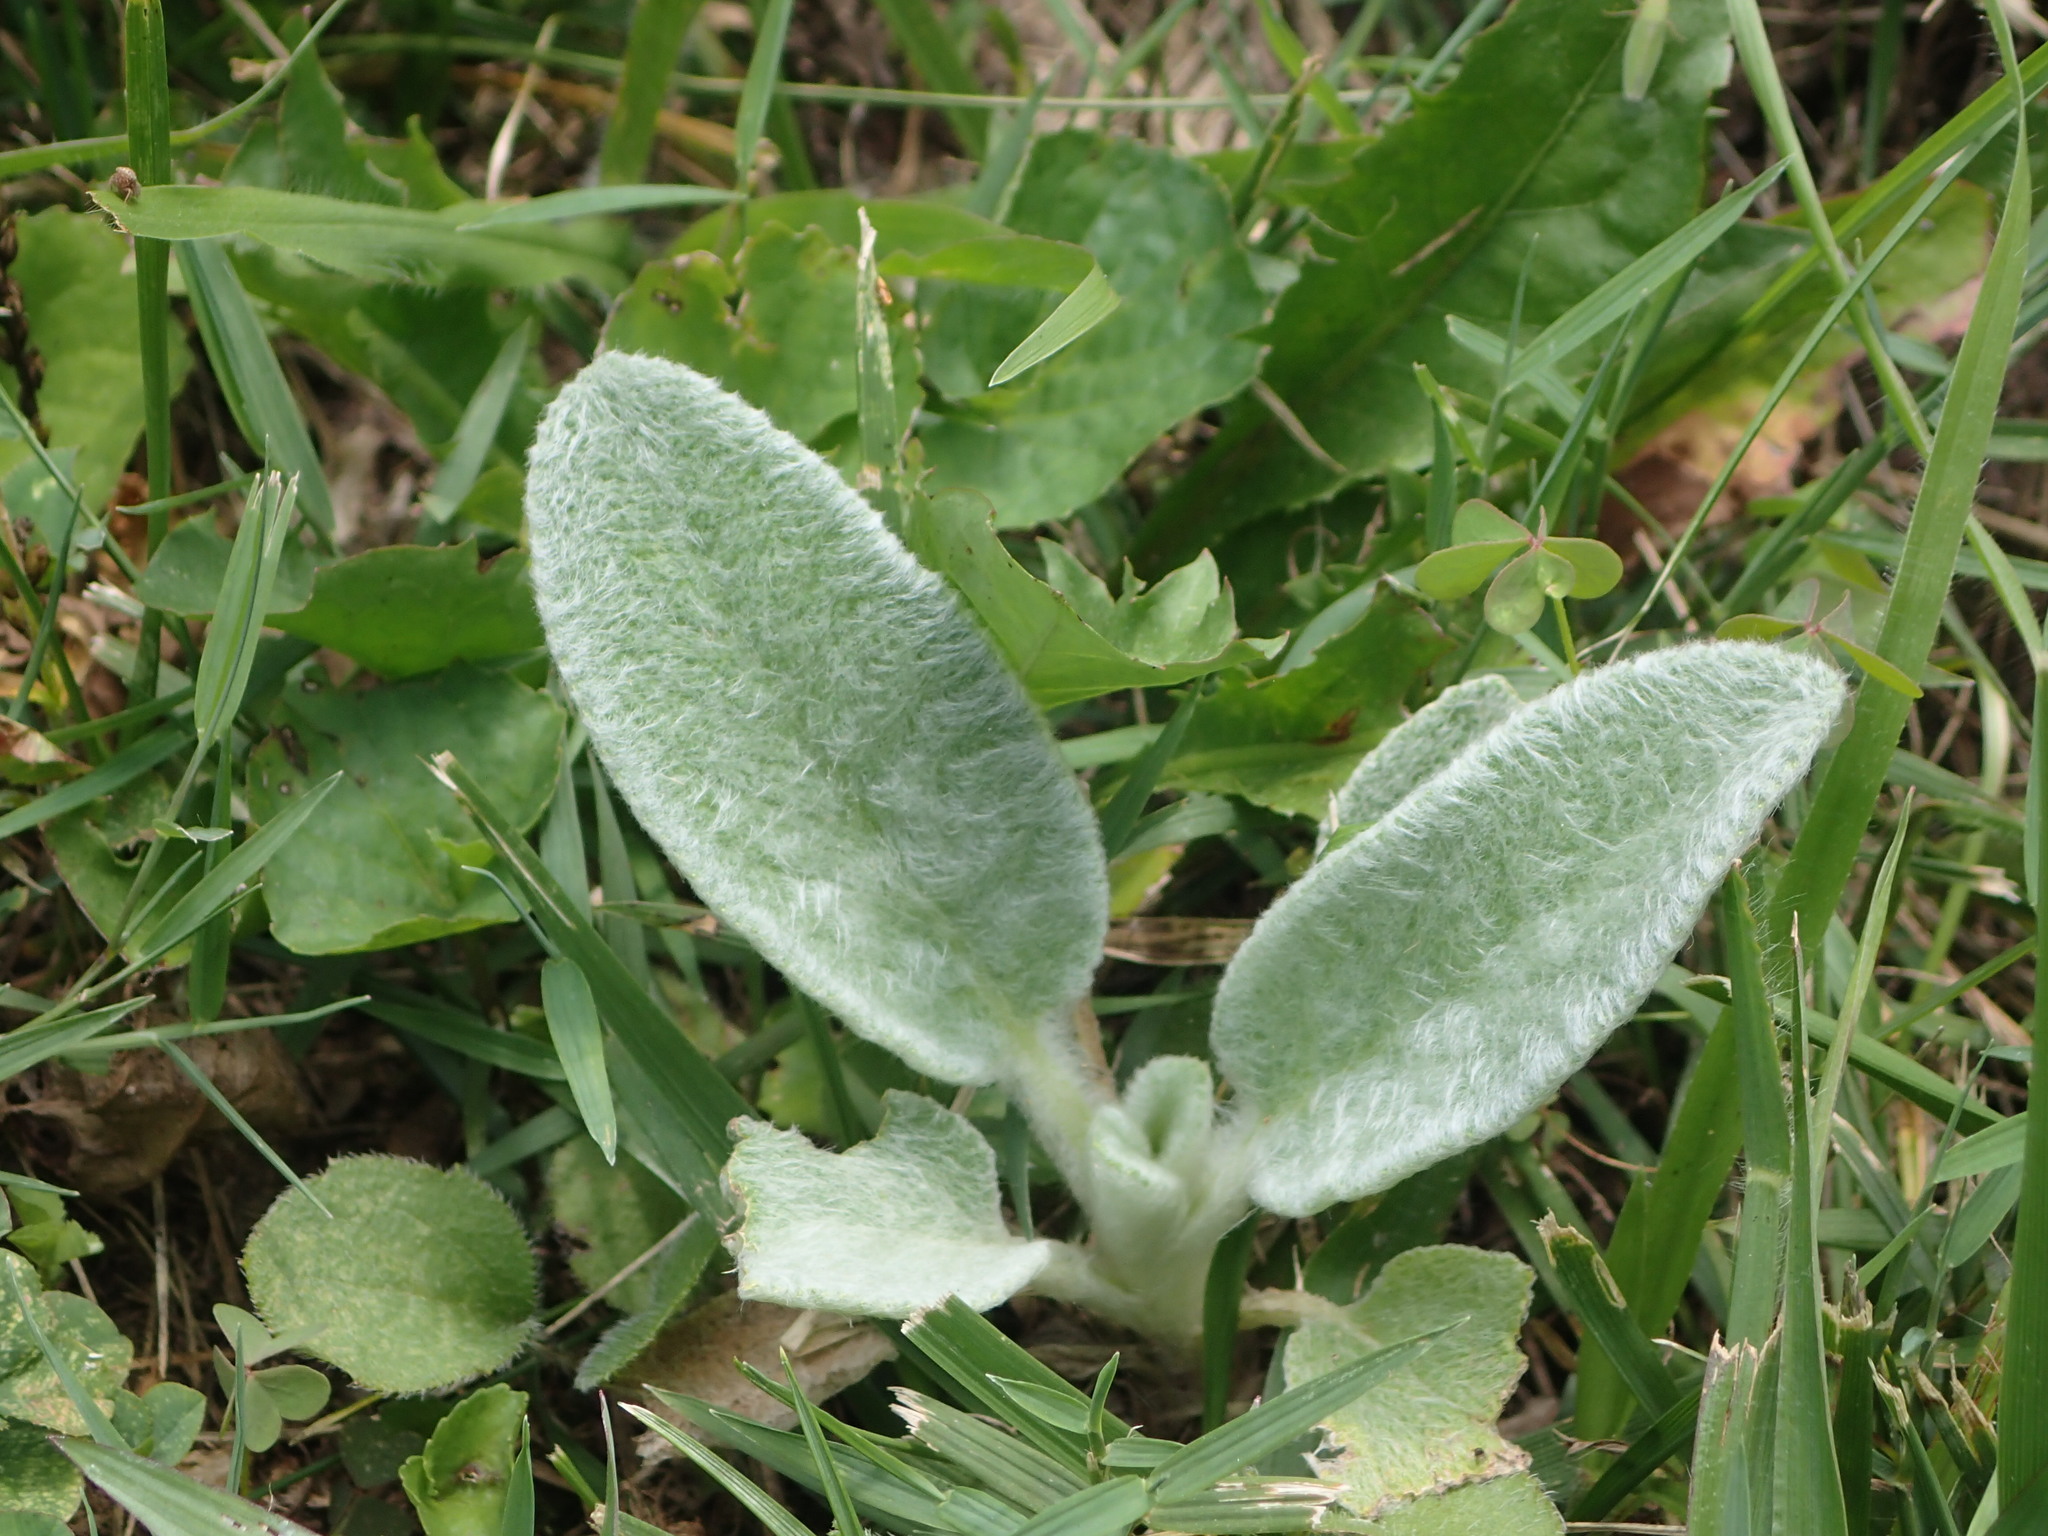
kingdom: Plantae
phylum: Tracheophyta
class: Magnoliopsida
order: Lamiales
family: Lamiaceae
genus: Stachys
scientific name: Stachys byzantina
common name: Lamb's-ear
